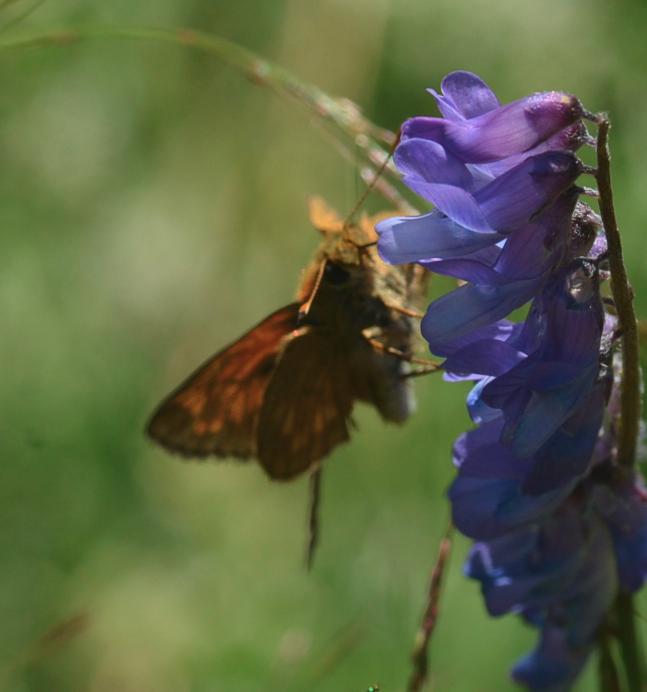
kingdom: Animalia
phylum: Arthropoda
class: Insecta
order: Lepidoptera
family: Hesperiidae
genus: Ochlodes
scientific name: Ochlodes venata
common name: Large skipper
